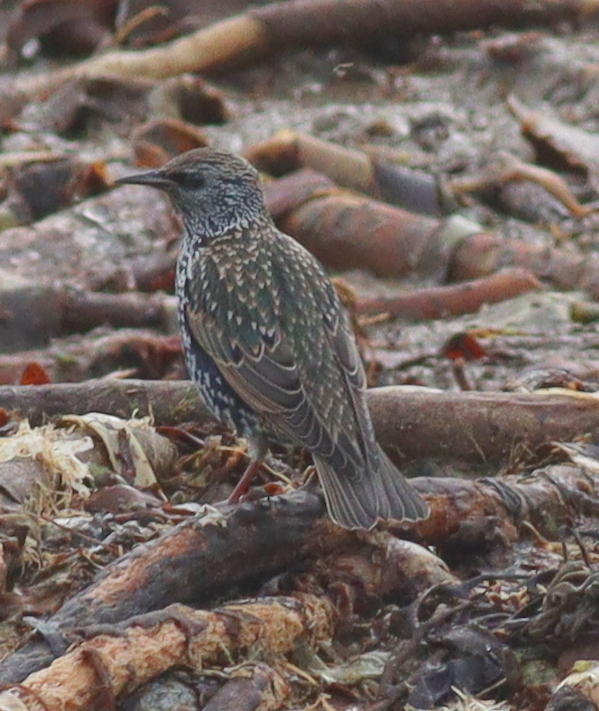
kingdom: Animalia
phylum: Chordata
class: Aves
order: Passeriformes
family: Sturnidae
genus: Sturnus
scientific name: Sturnus vulgaris
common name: Common starling
